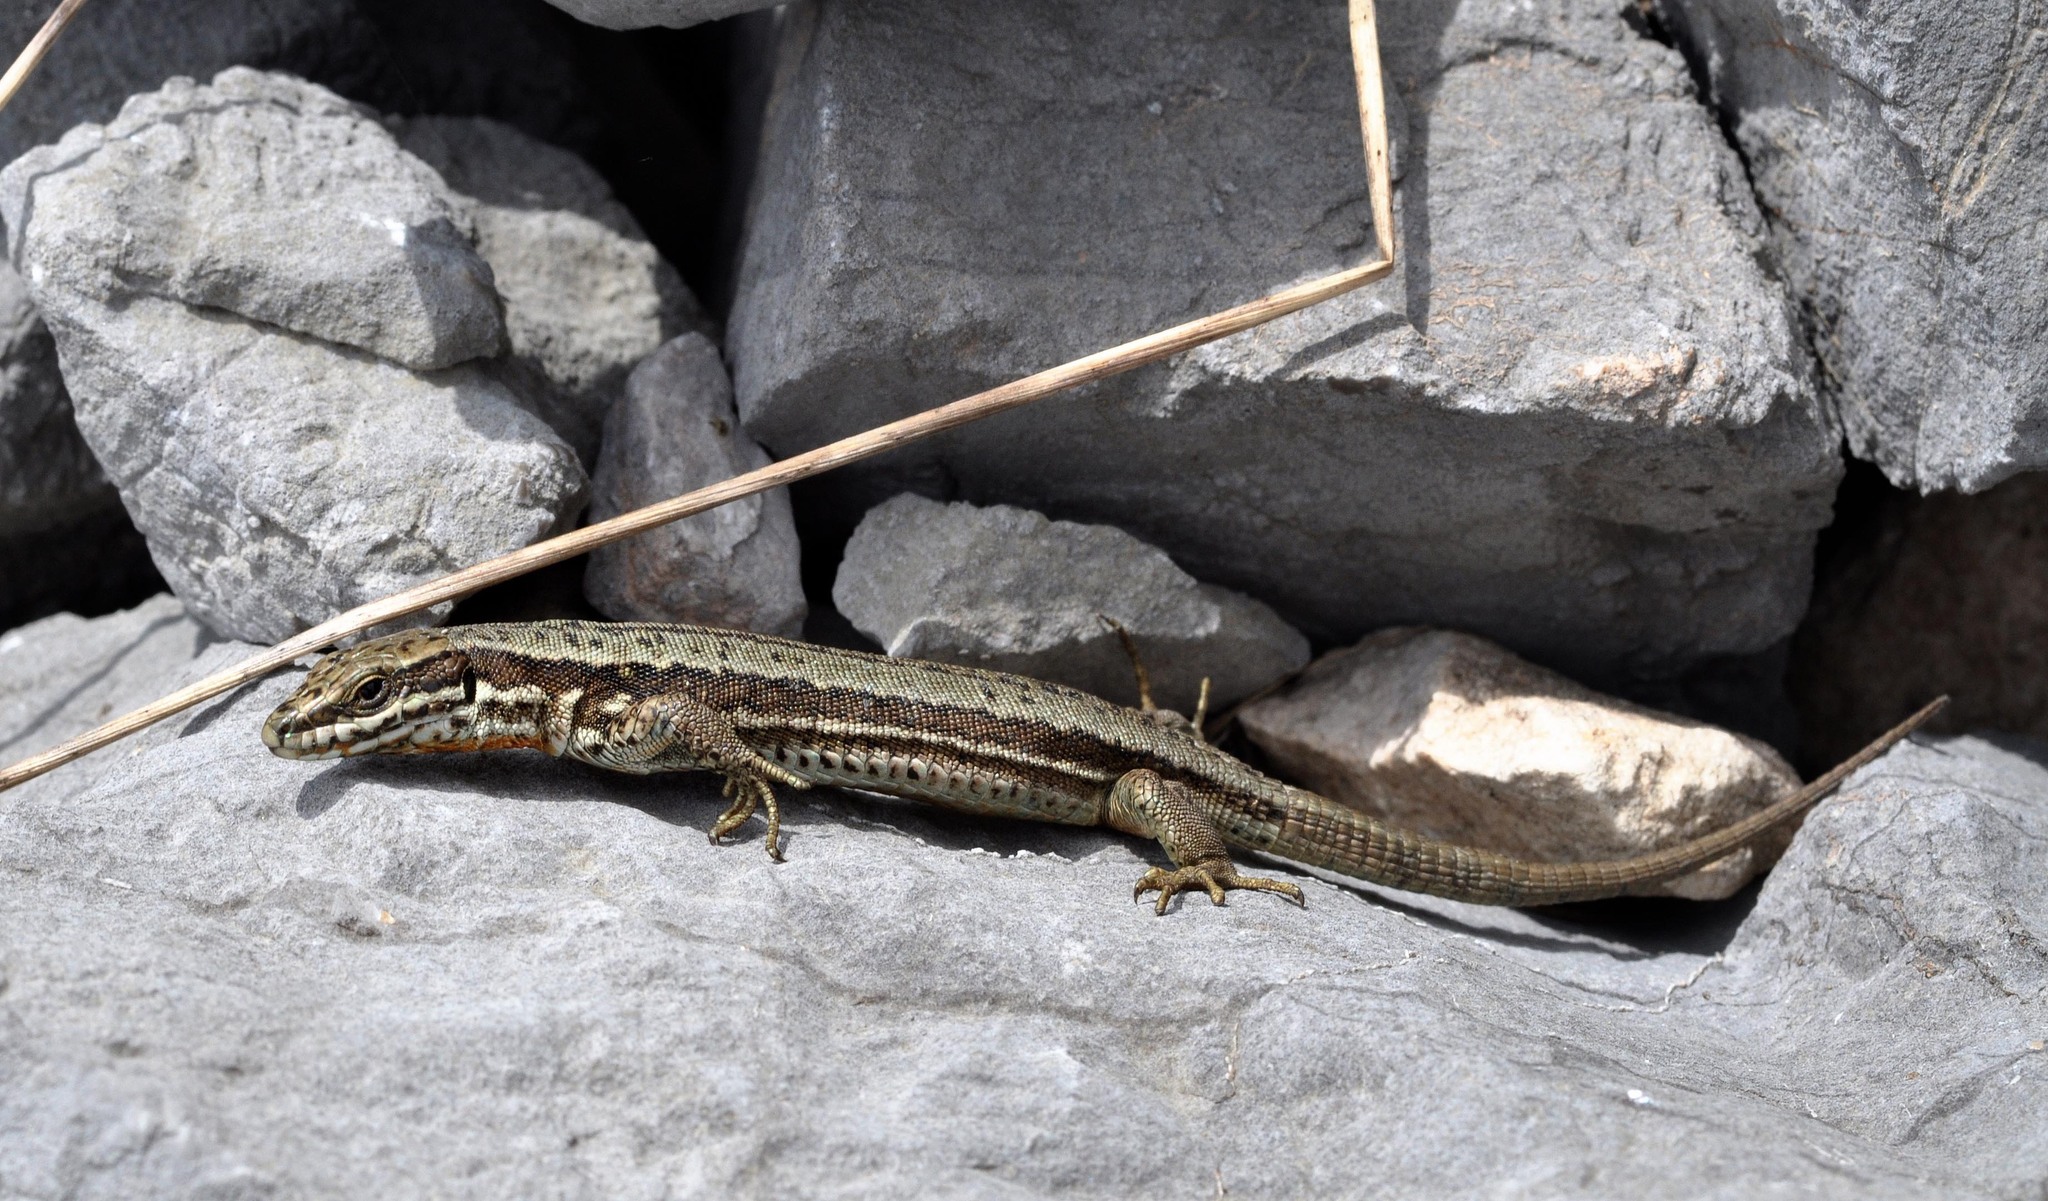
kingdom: Animalia
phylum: Chordata
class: Squamata
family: Lacertidae
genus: Podarcis
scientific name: Podarcis muralis
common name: Common wall lizard
